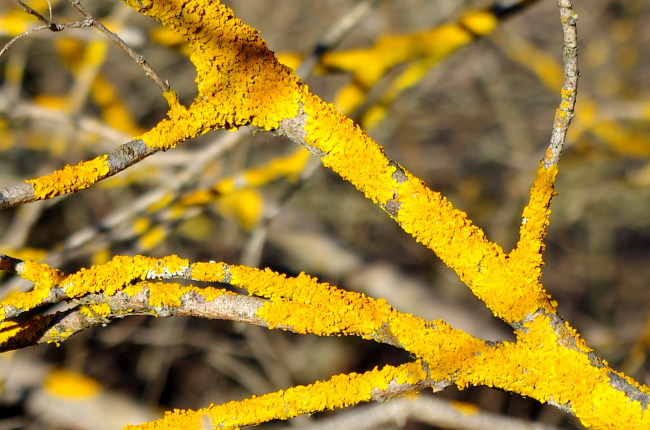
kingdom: Fungi
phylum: Ascomycota
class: Lecanoromycetes
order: Teloschistales
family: Teloschistaceae
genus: Xanthoria
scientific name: Xanthoria parietina
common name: Common orange lichen
